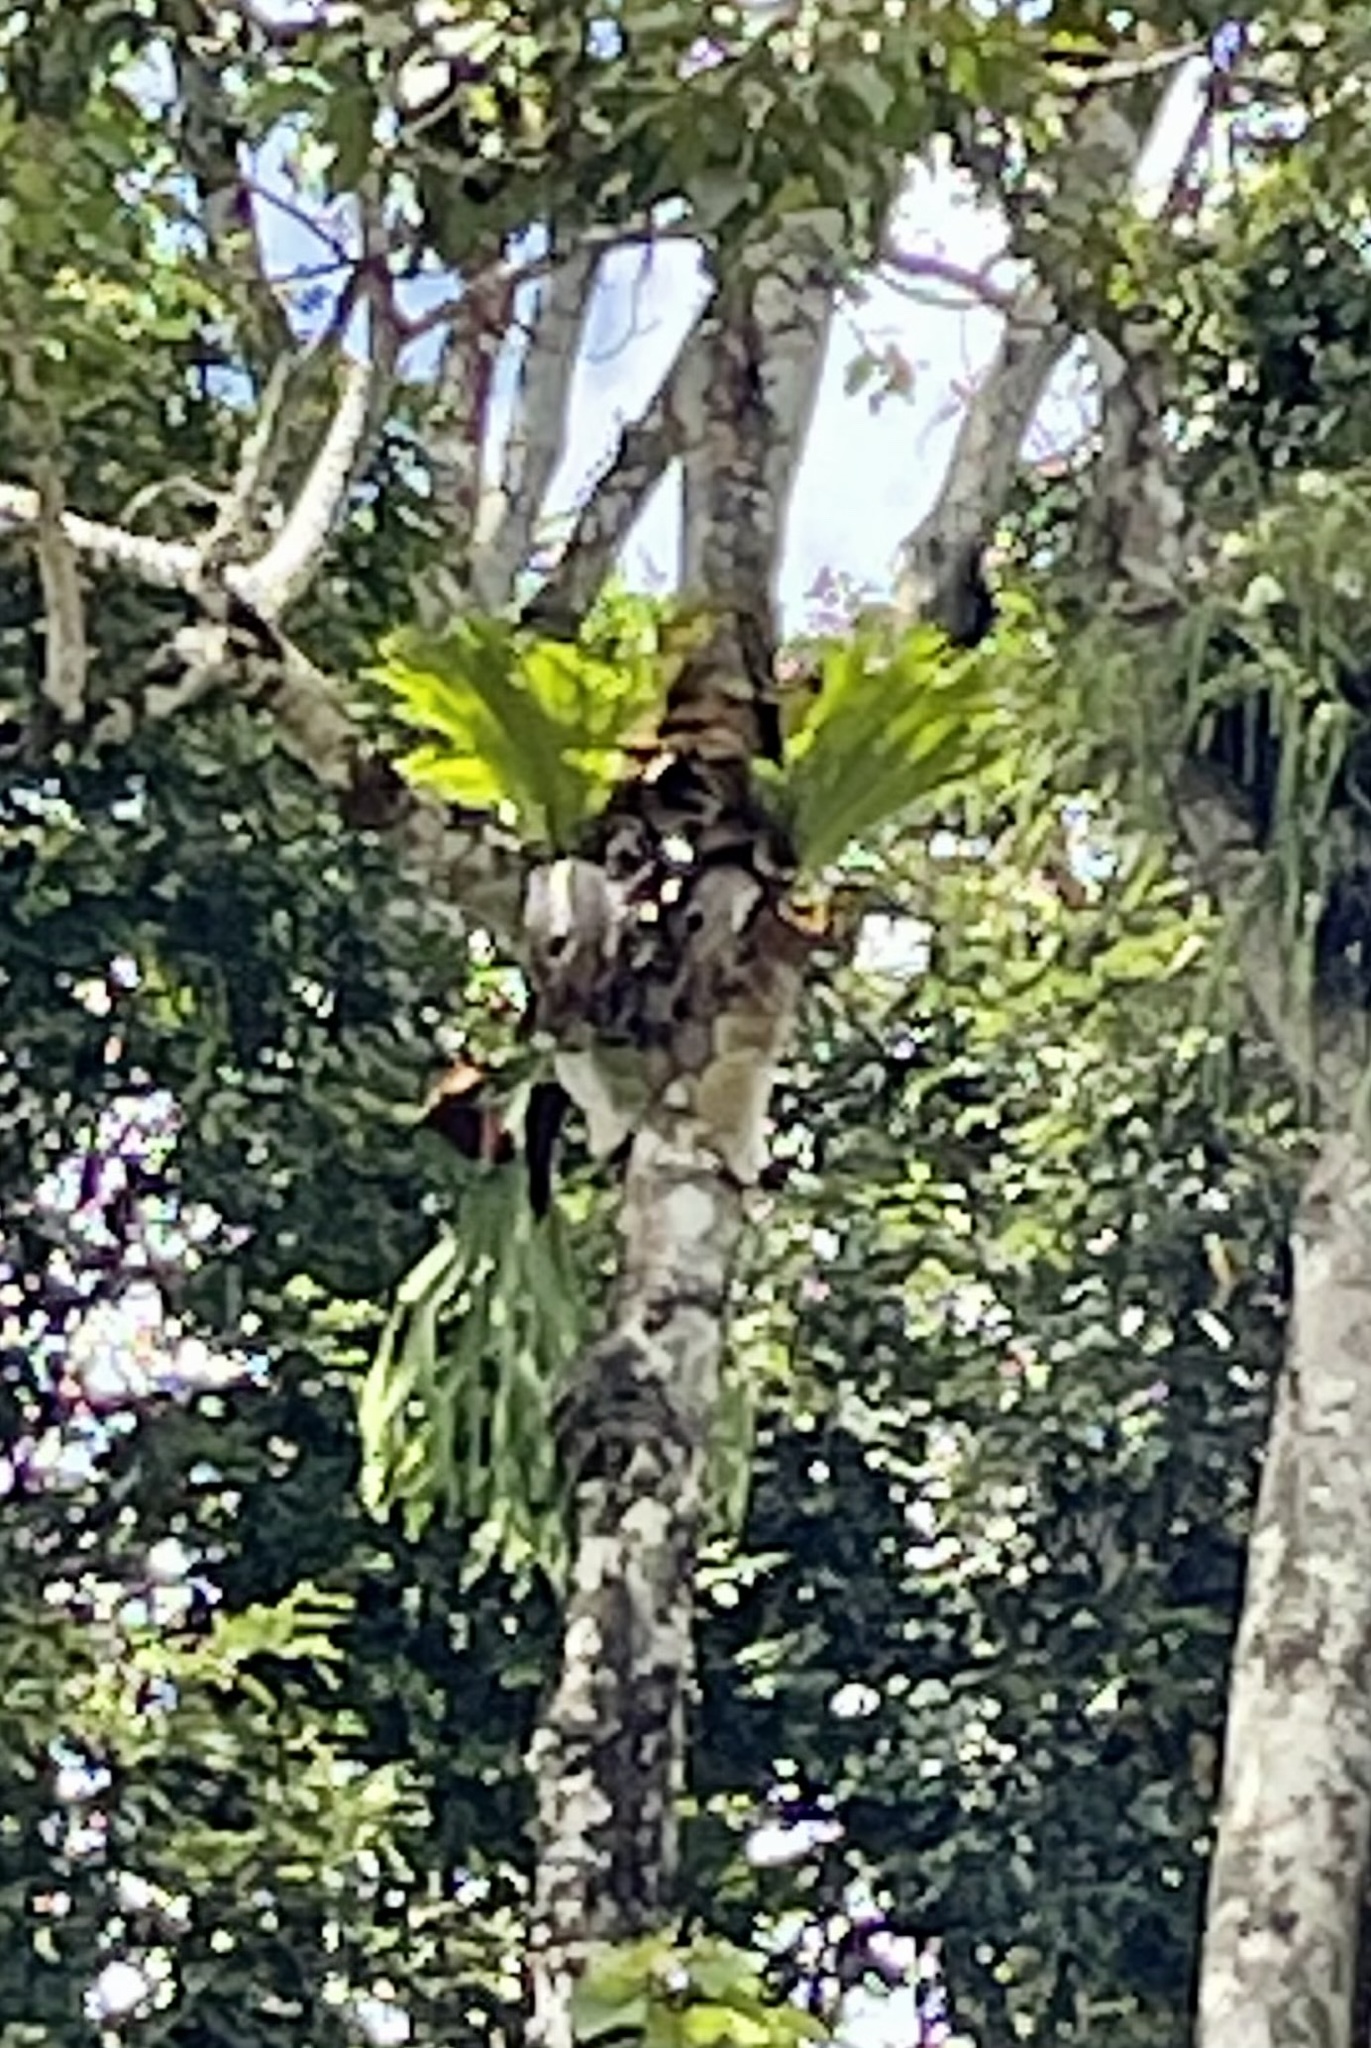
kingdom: Plantae
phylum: Tracheophyta
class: Polypodiopsida
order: Polypodiales
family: Polypodiaceae
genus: Platycerium
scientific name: Platycerium superbum
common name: Staghorn fern
